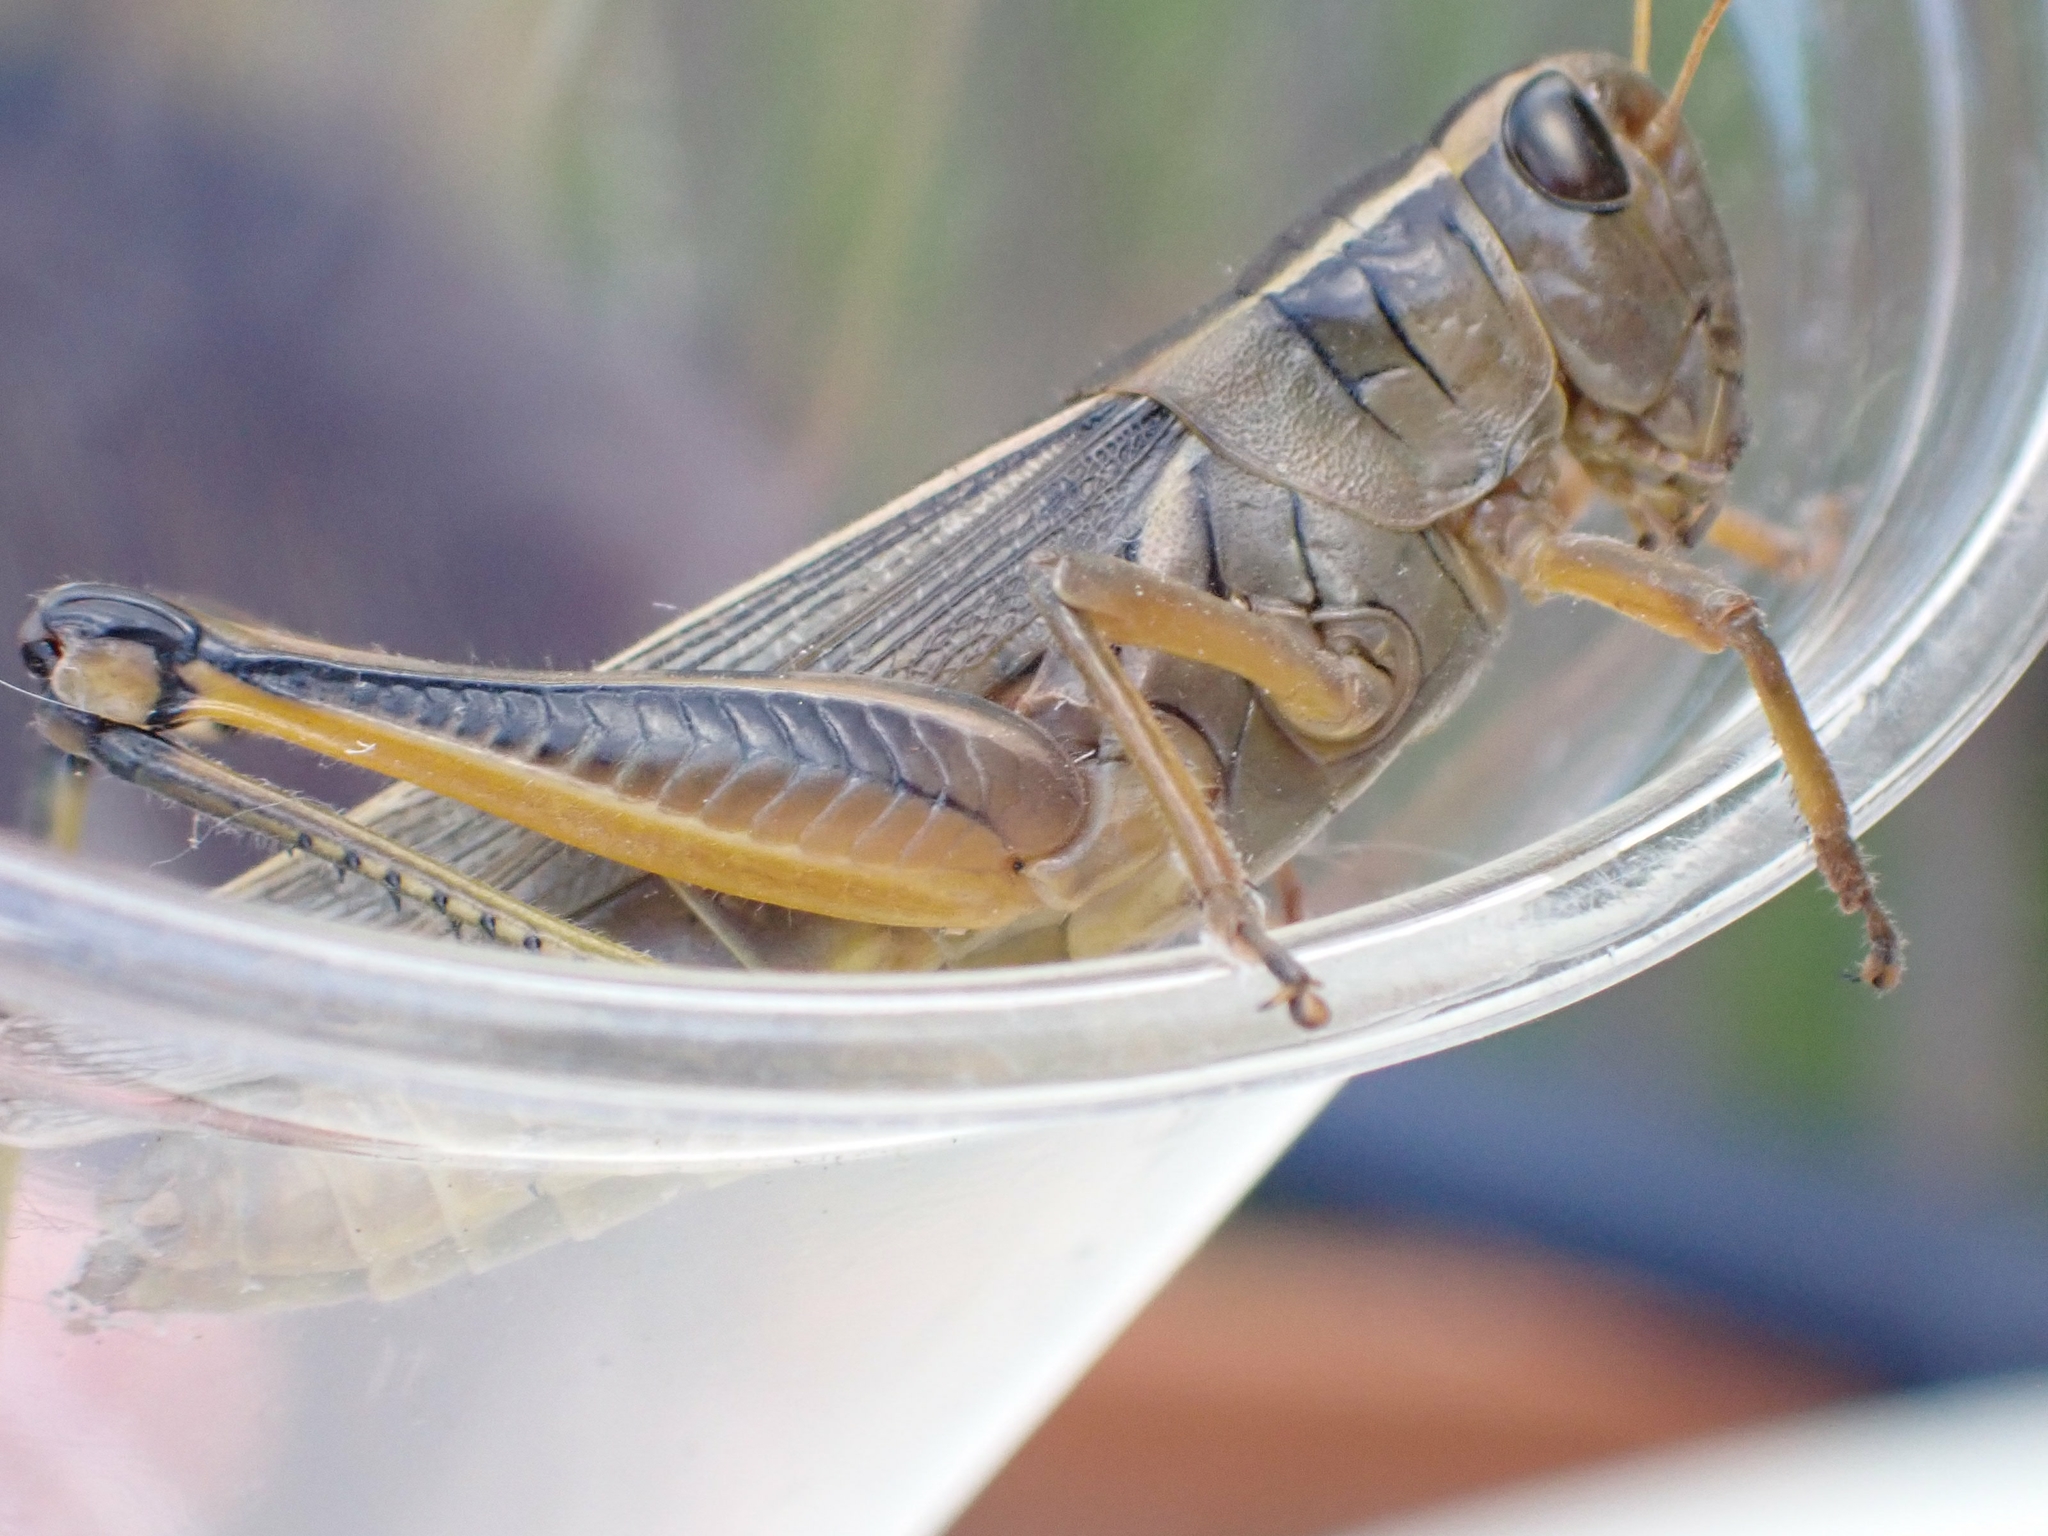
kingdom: Animalia
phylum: Arthropoda
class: Insecta
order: Orthoptera
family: Acrididae
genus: Melanoplus
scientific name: Melanoplus bivittatus
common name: Two-striped grasshopper
